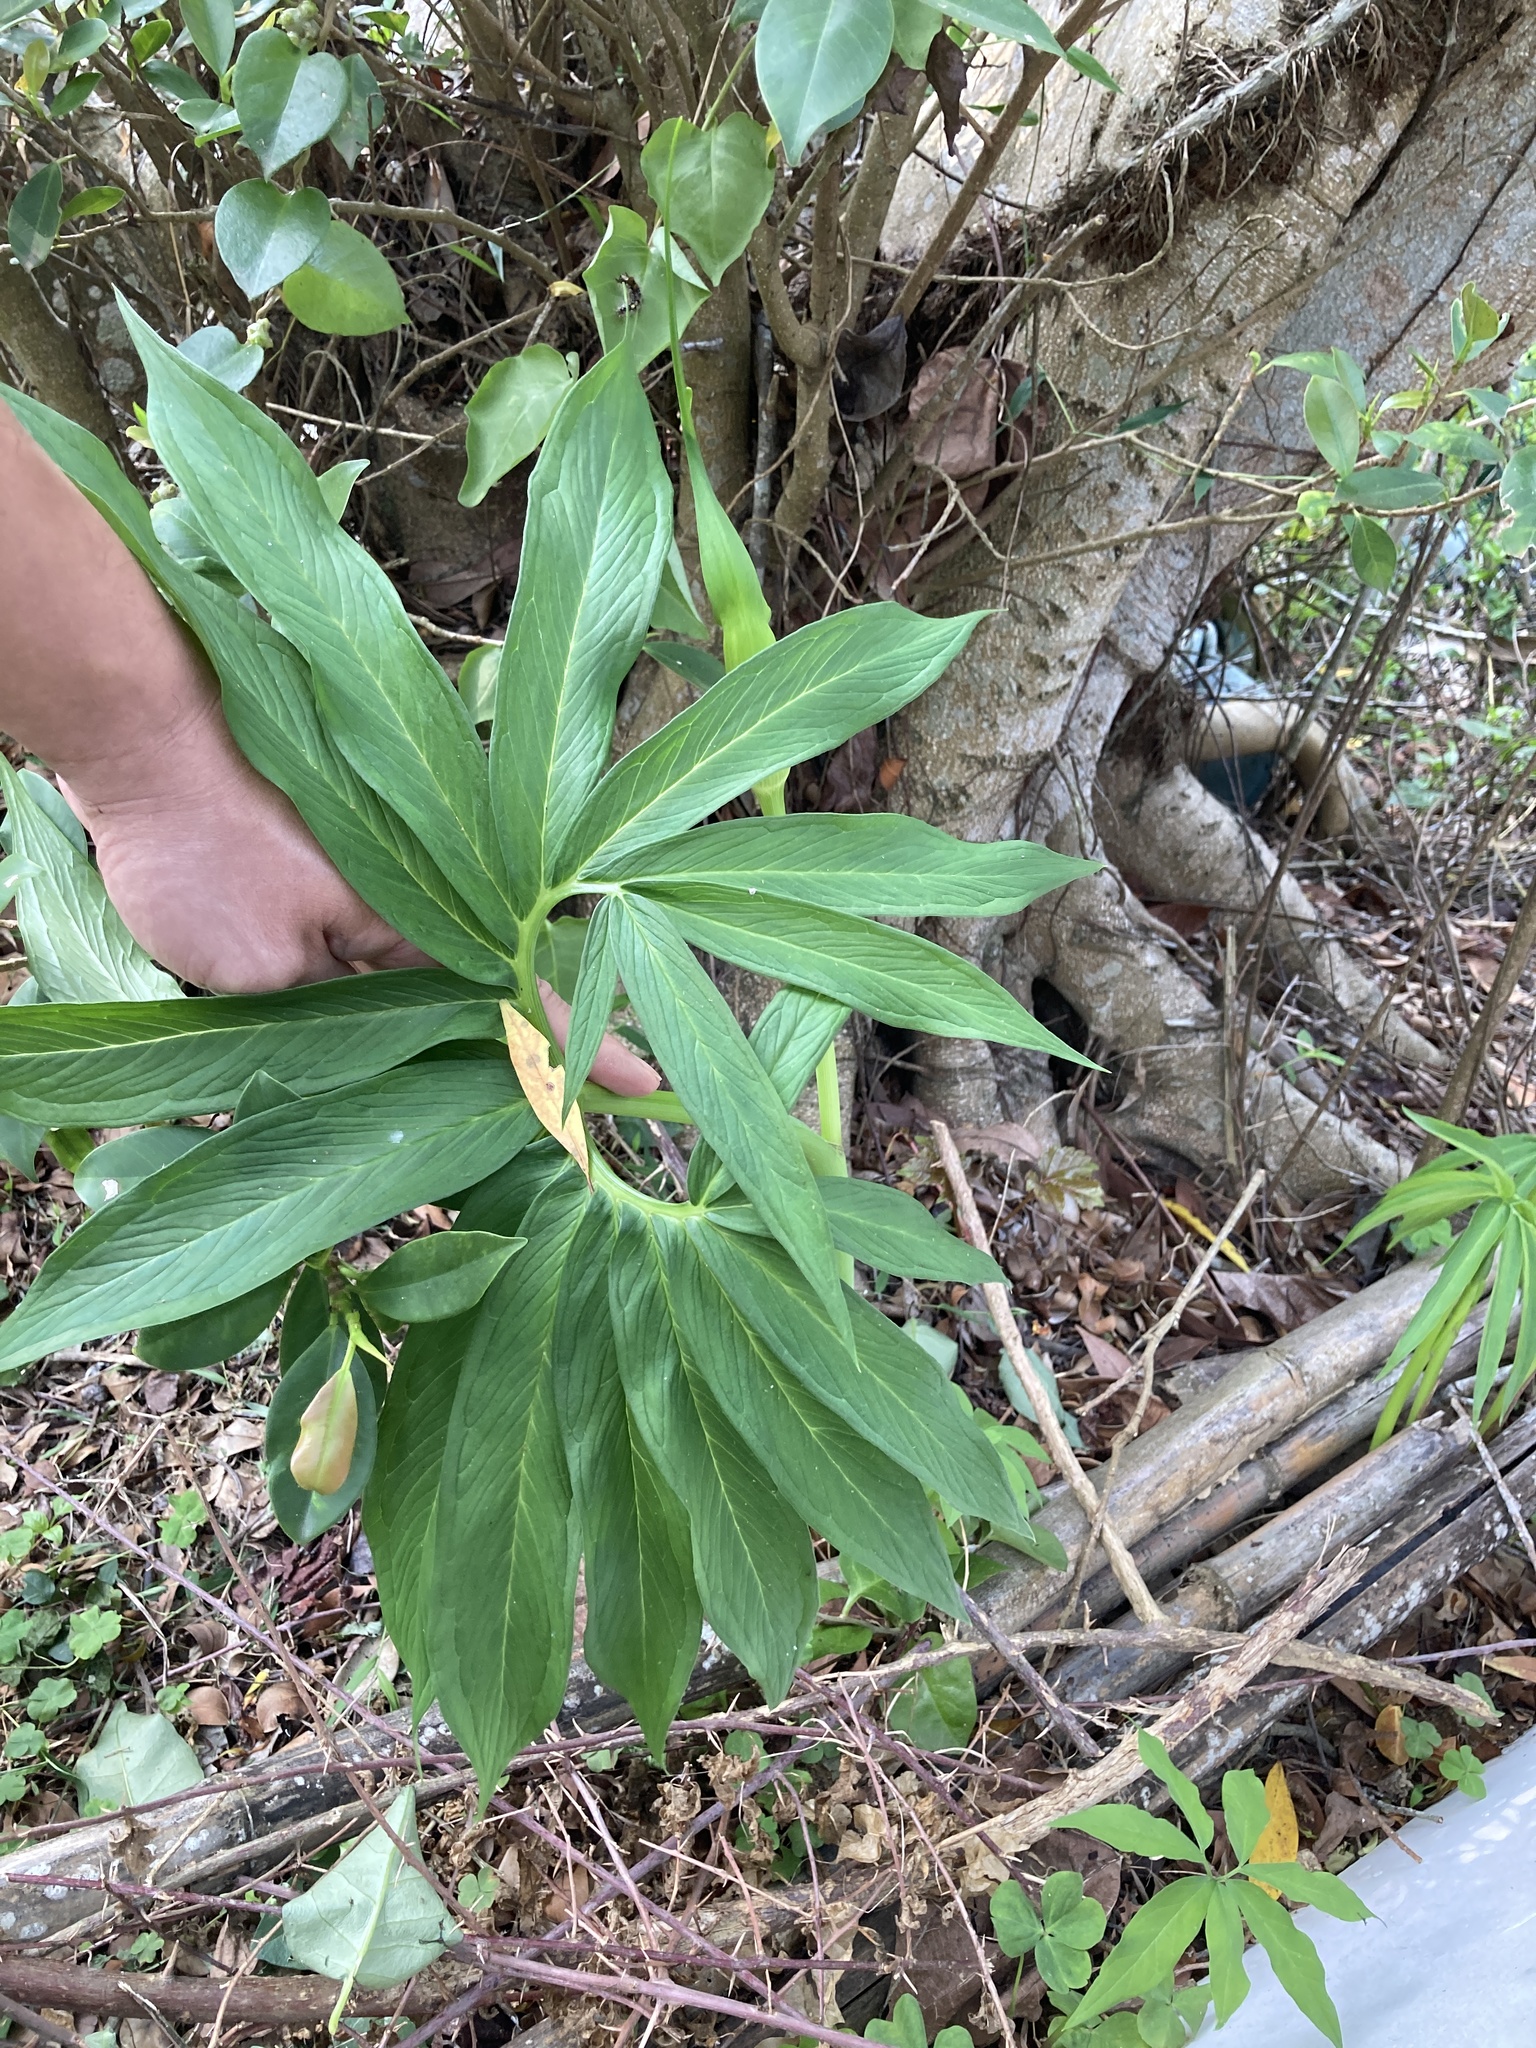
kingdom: Plantae
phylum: Tracheophyta
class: Liliopsida
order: Alismatales
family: Araceae
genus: Arisaema
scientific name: Arisaema heterophyllum
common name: Dancing crane cobra lily
